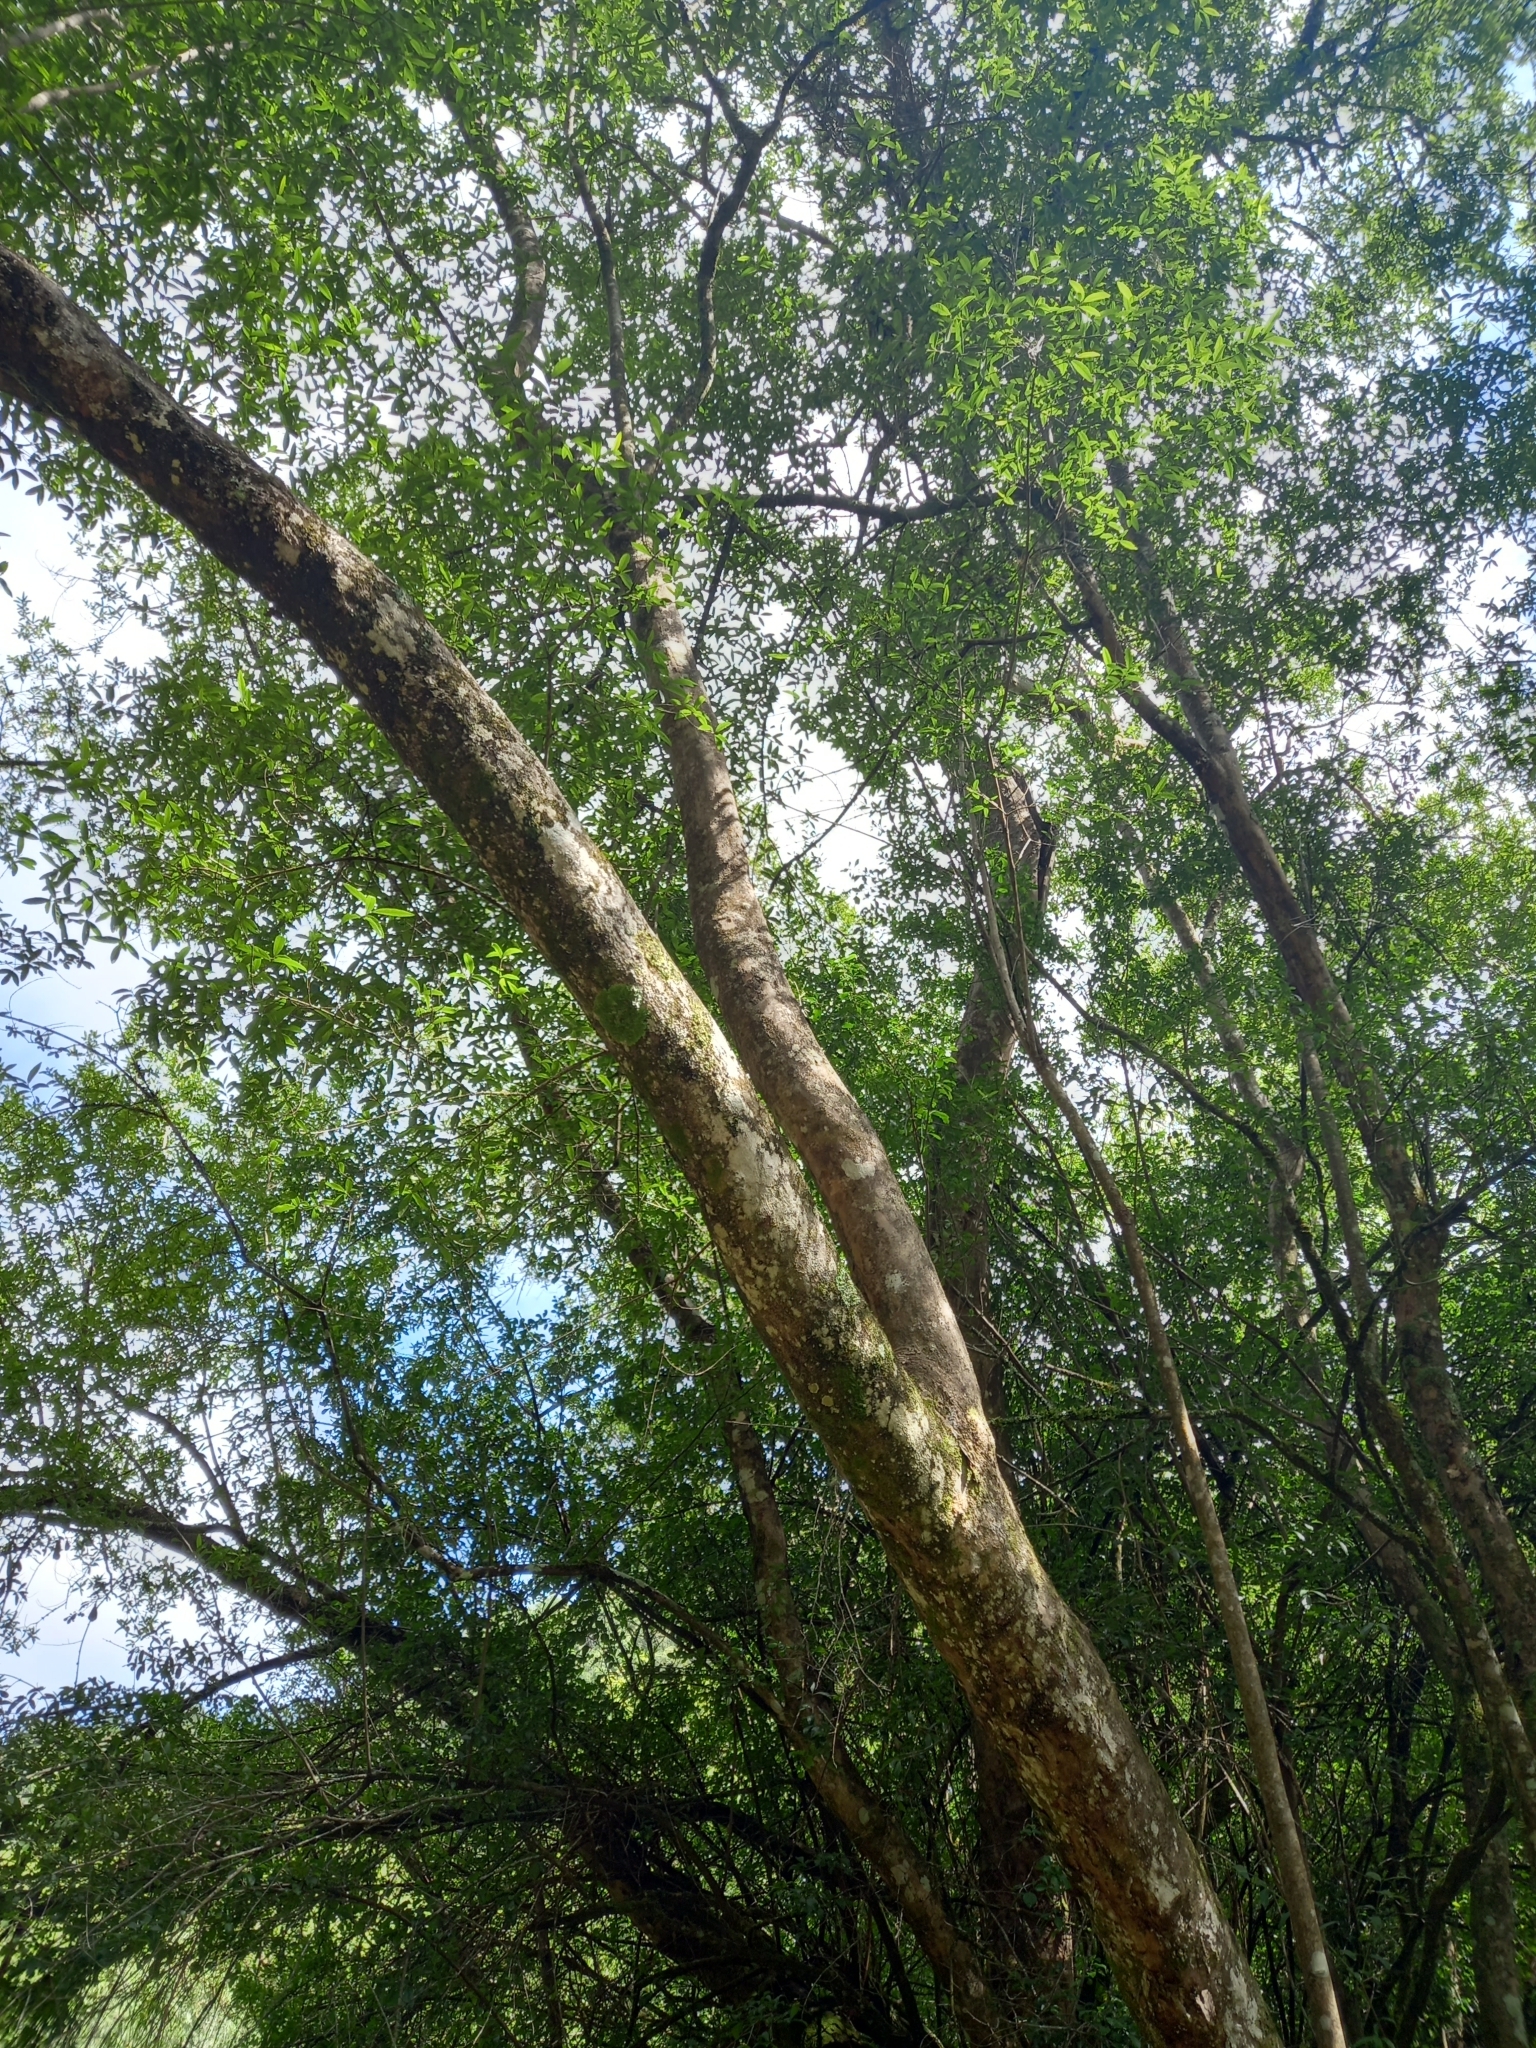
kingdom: Plantae
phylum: Tracheophyta
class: Magnoliopsida
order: Myrtales
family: Combretaceae
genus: Combretum
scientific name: Combretum caffrum
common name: Cape bushwillow
